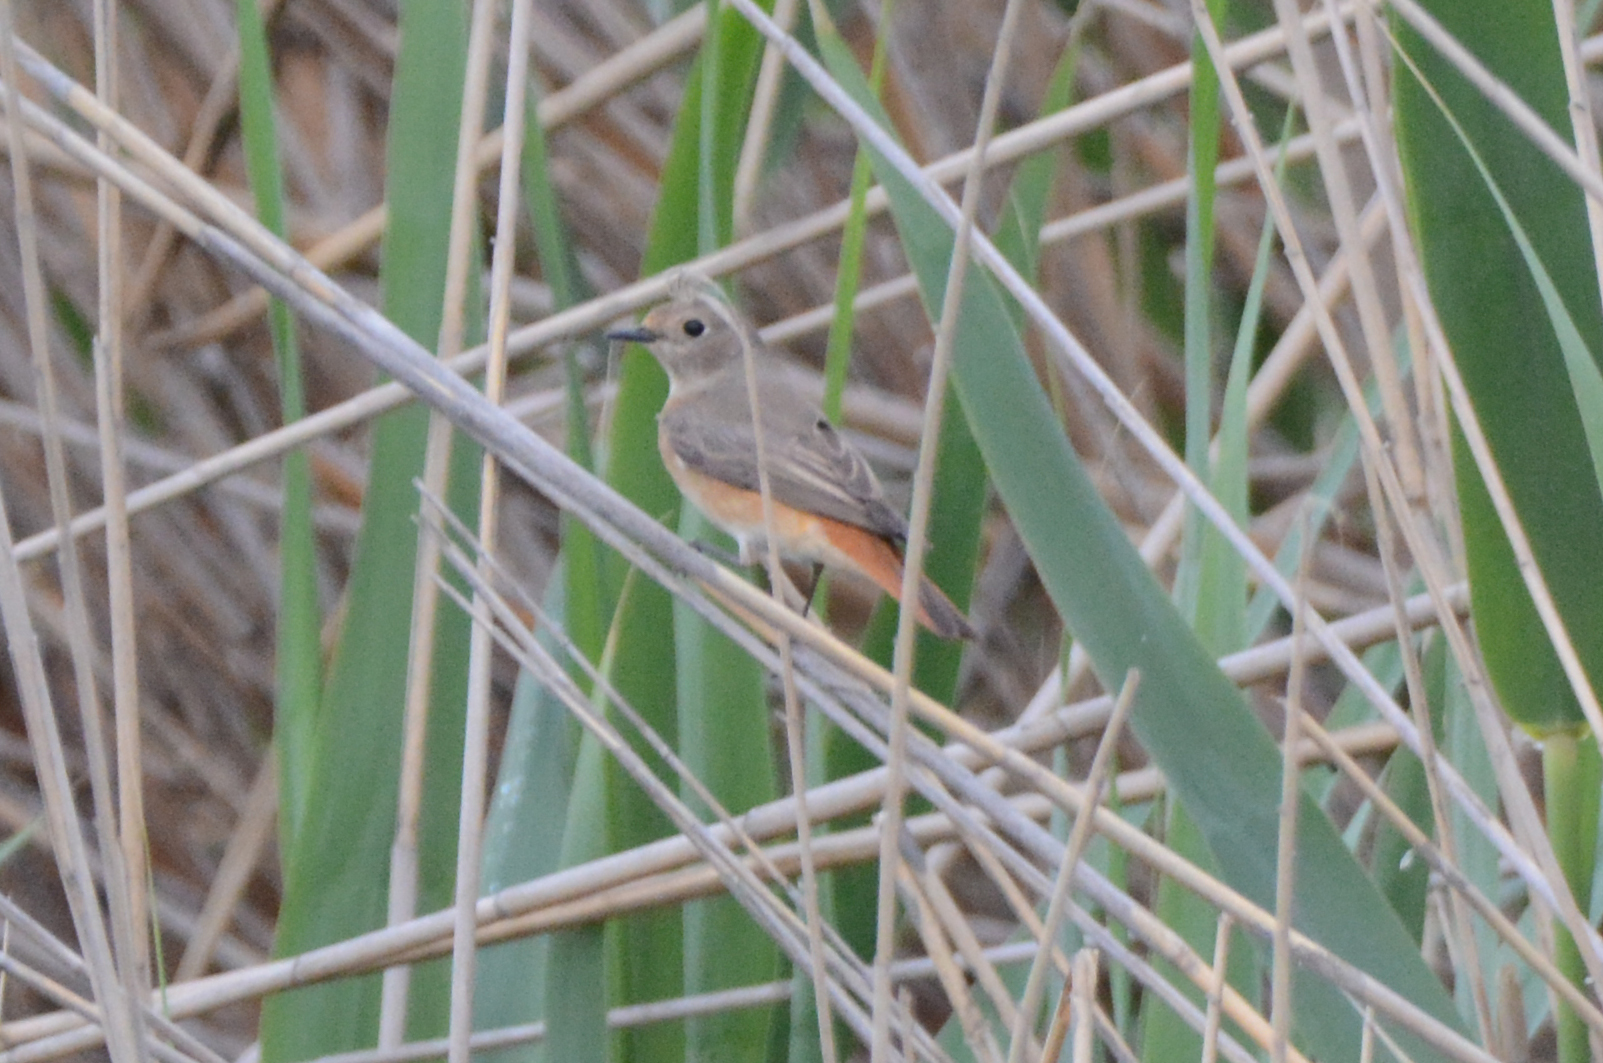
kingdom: Animalia
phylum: Chordata
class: Aves
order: Passeriformes
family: Muscicapidae
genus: Phoenicurus
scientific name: Phoenicurus phoenicurus
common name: Common redstart
